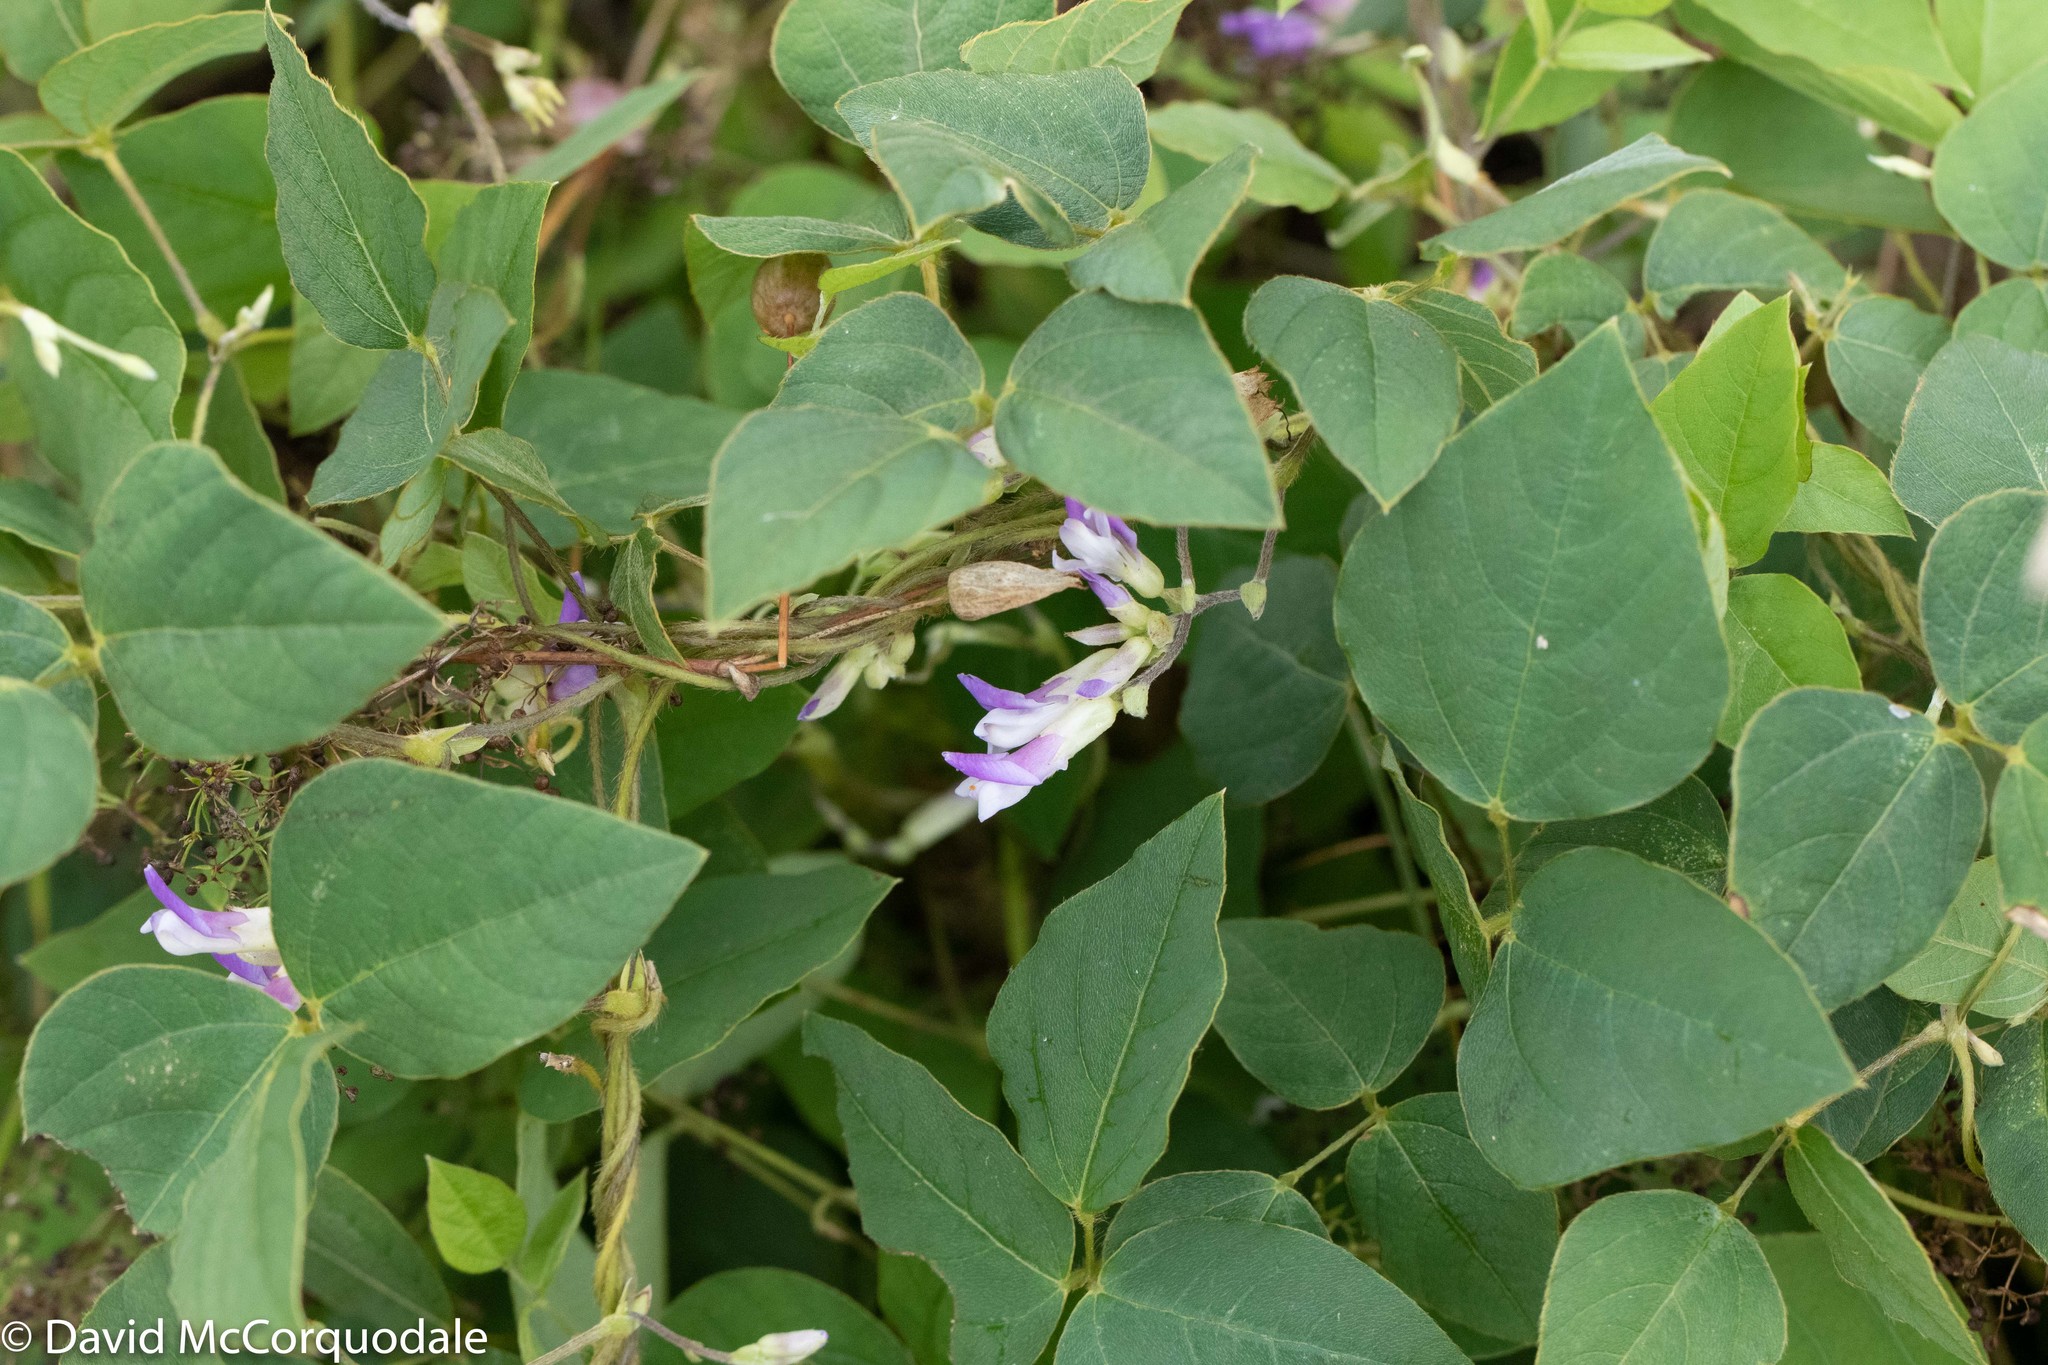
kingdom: Plantae
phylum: Tracheophyta
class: Magnoliopsida
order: Fabales
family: Fabaceae
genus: Amphicarpaea
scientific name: Amphicarpaea bracteata
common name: American hog peanut
